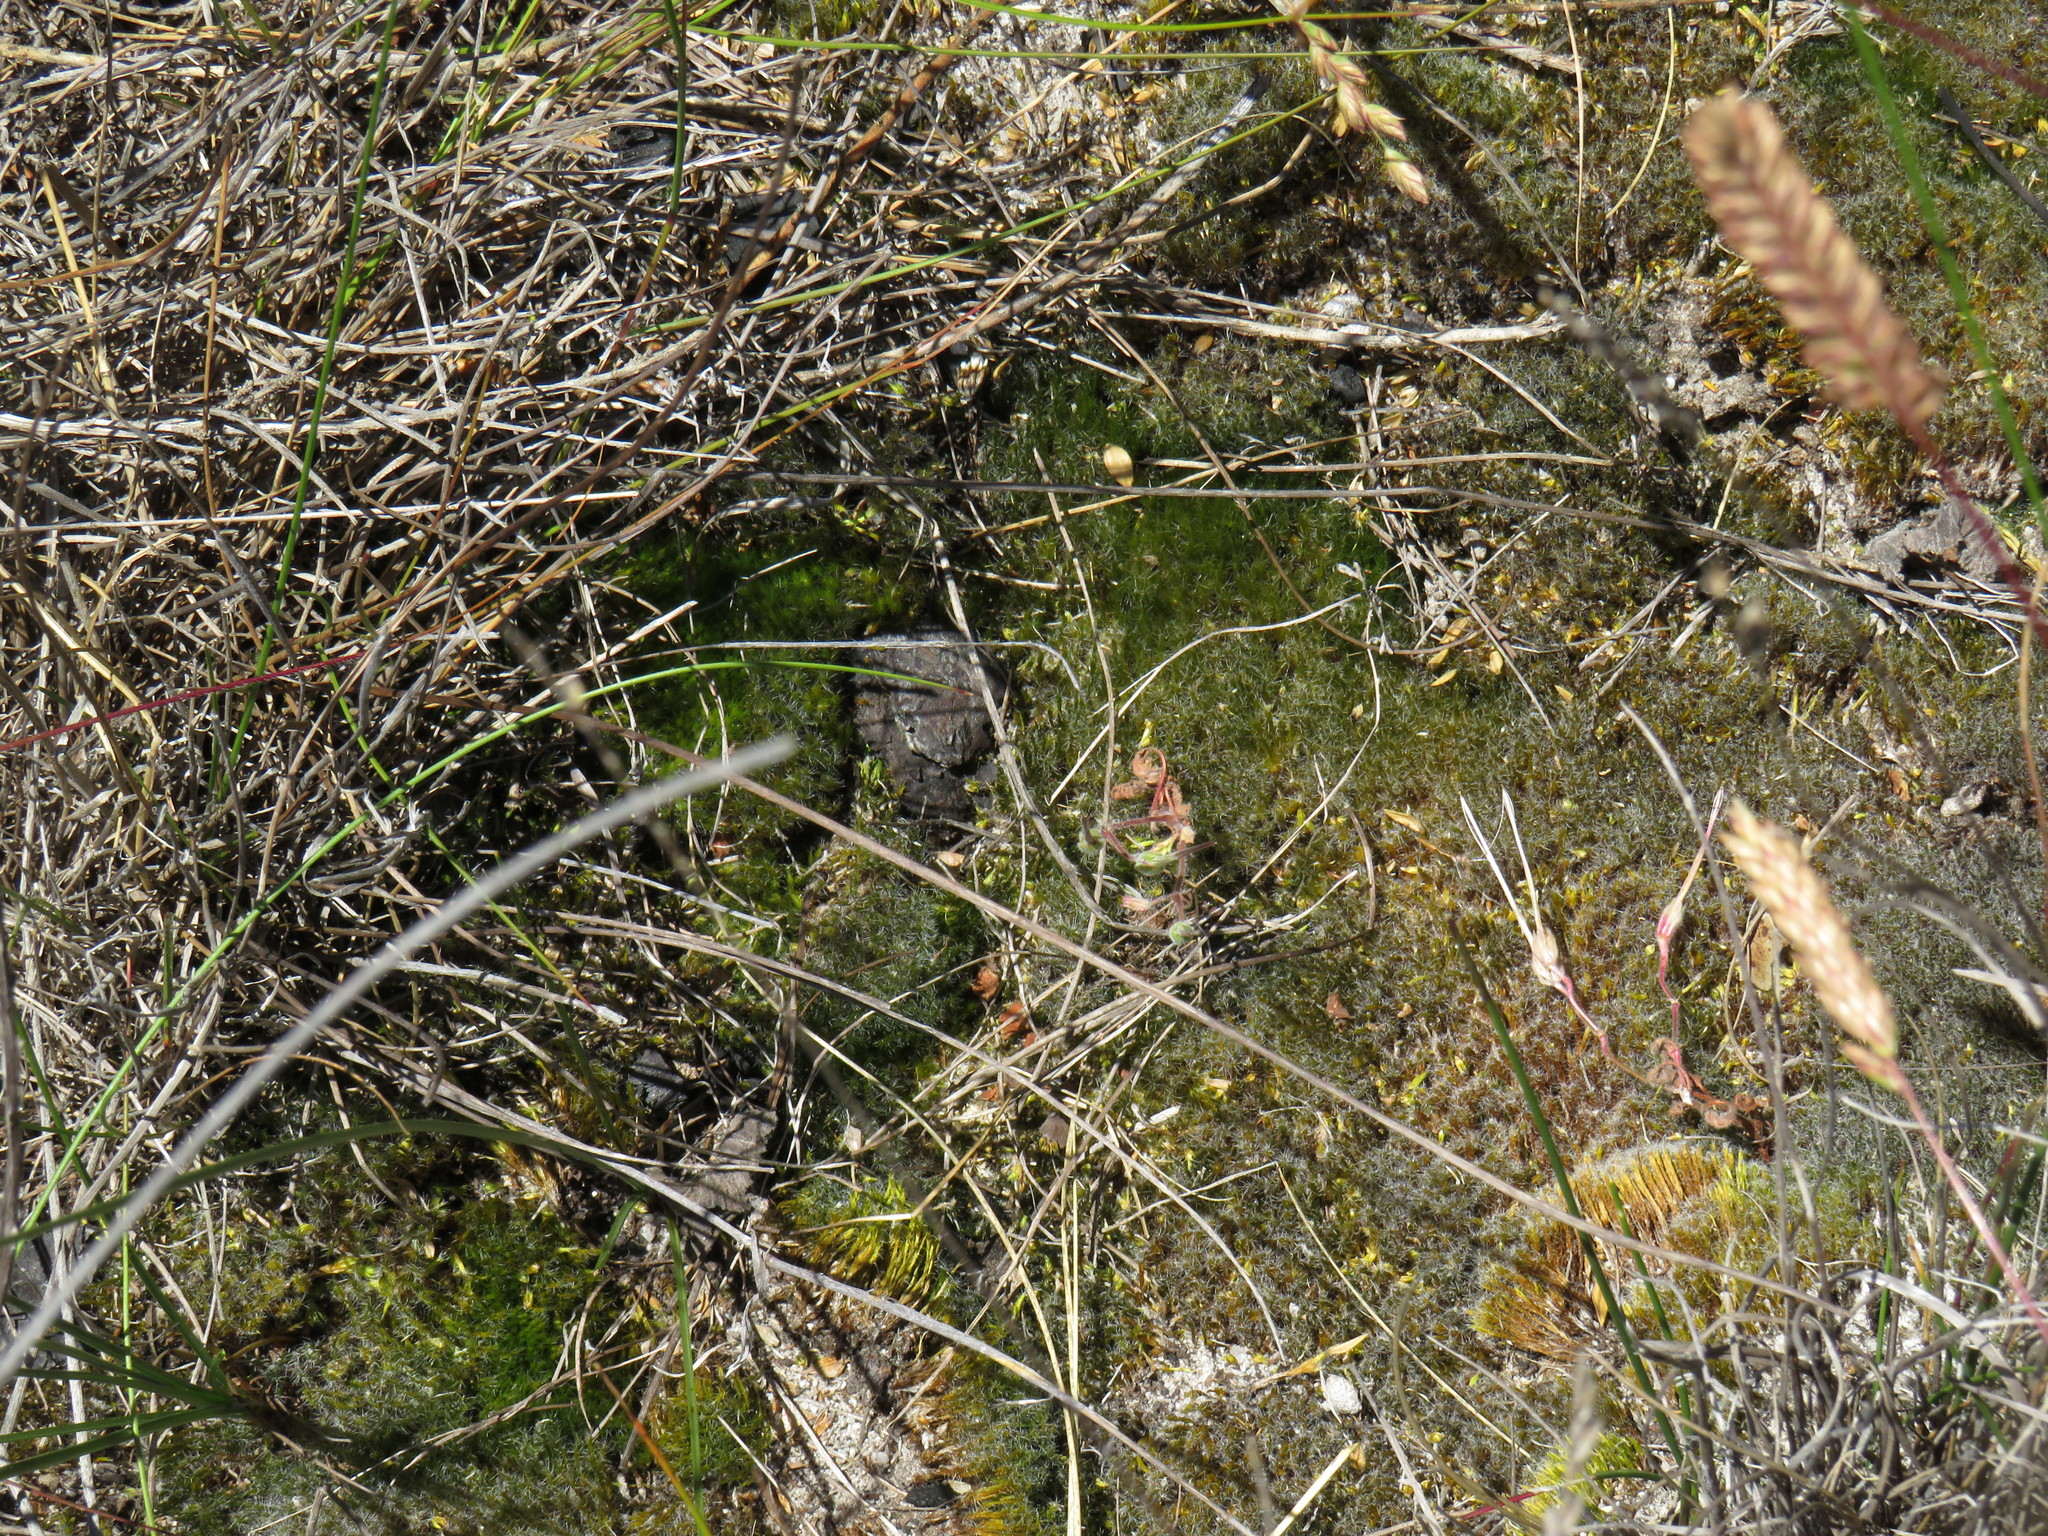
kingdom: Plantae
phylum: Bryophyta
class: Bryopsida
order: Dicranales
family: Leucobryaceae
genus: Campylopus
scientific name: Campylopus introflexus
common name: Heath star moss
